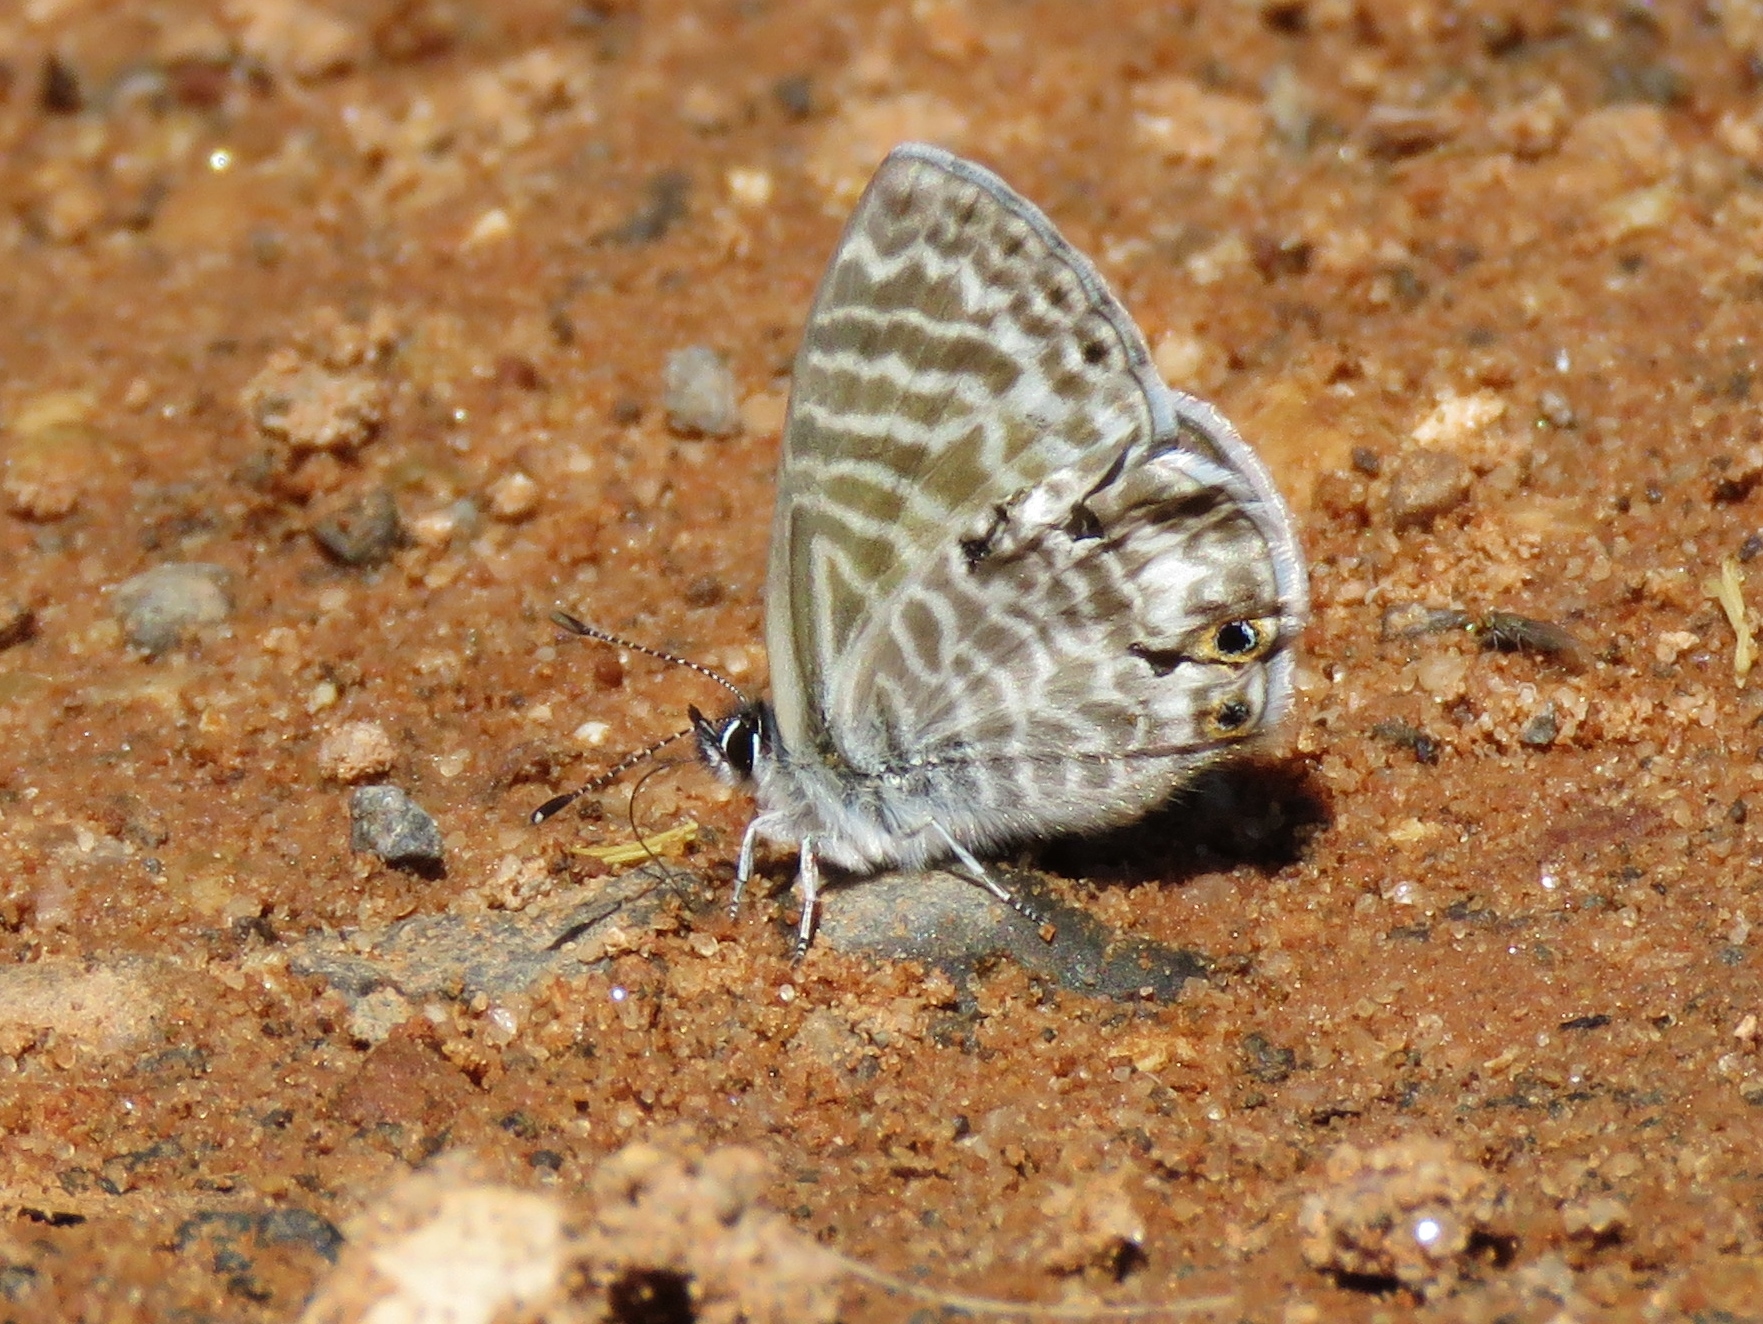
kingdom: Animalia
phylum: Arthropoda
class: Insecta
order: Lepidoptera
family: Lycaenidae
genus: Leptotes
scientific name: Leptotes marina
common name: Marine blue
